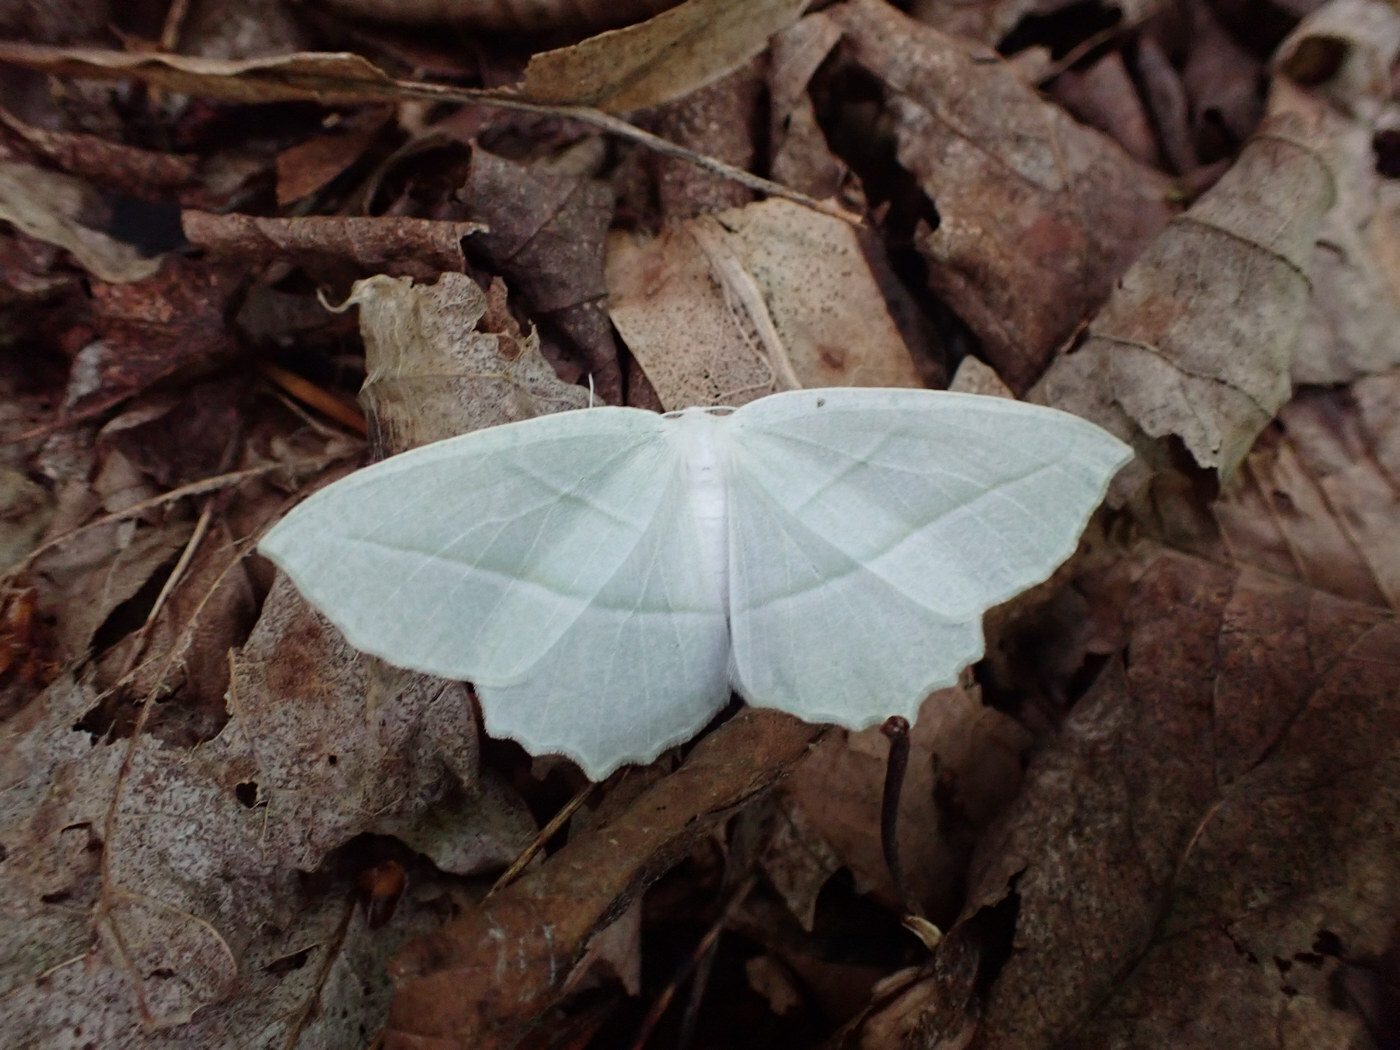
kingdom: Animalia
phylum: Arthropoda
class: Insecta
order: Lepidoptera
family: Geometridae
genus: Campaea
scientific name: Campaea perlata
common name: Fringed looper
